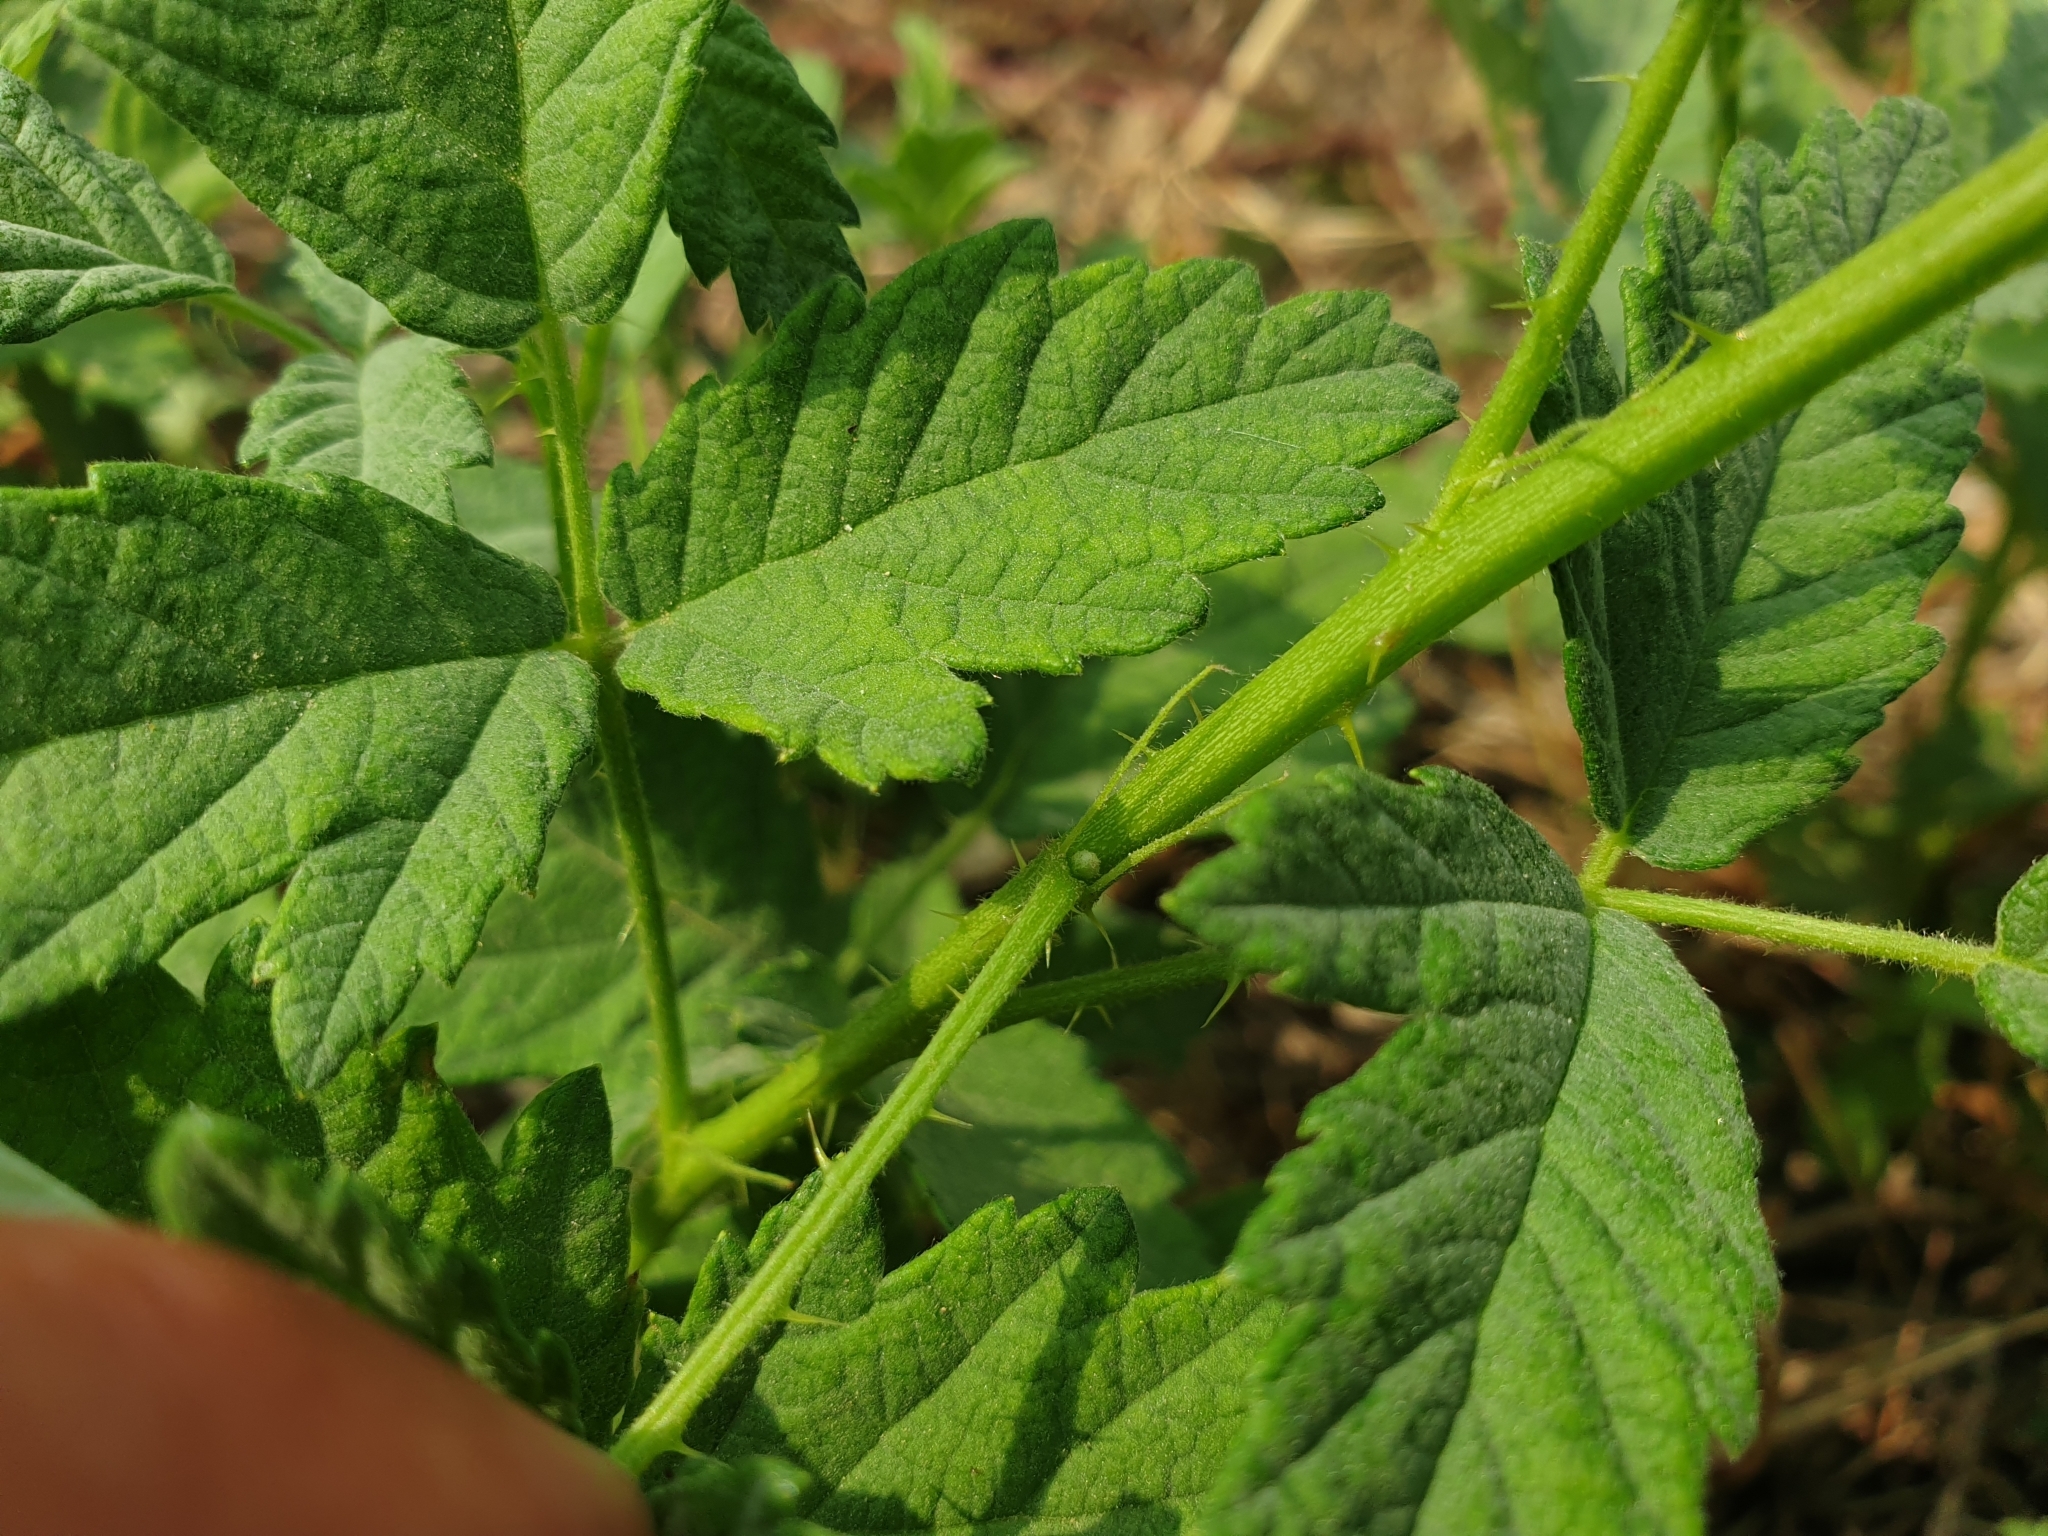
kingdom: Plantae
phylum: Tracheophyta
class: Magnoliopsida
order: Rosales
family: Rosaceae
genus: Rubus
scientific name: Rubus canescens
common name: Wooly blackberry
